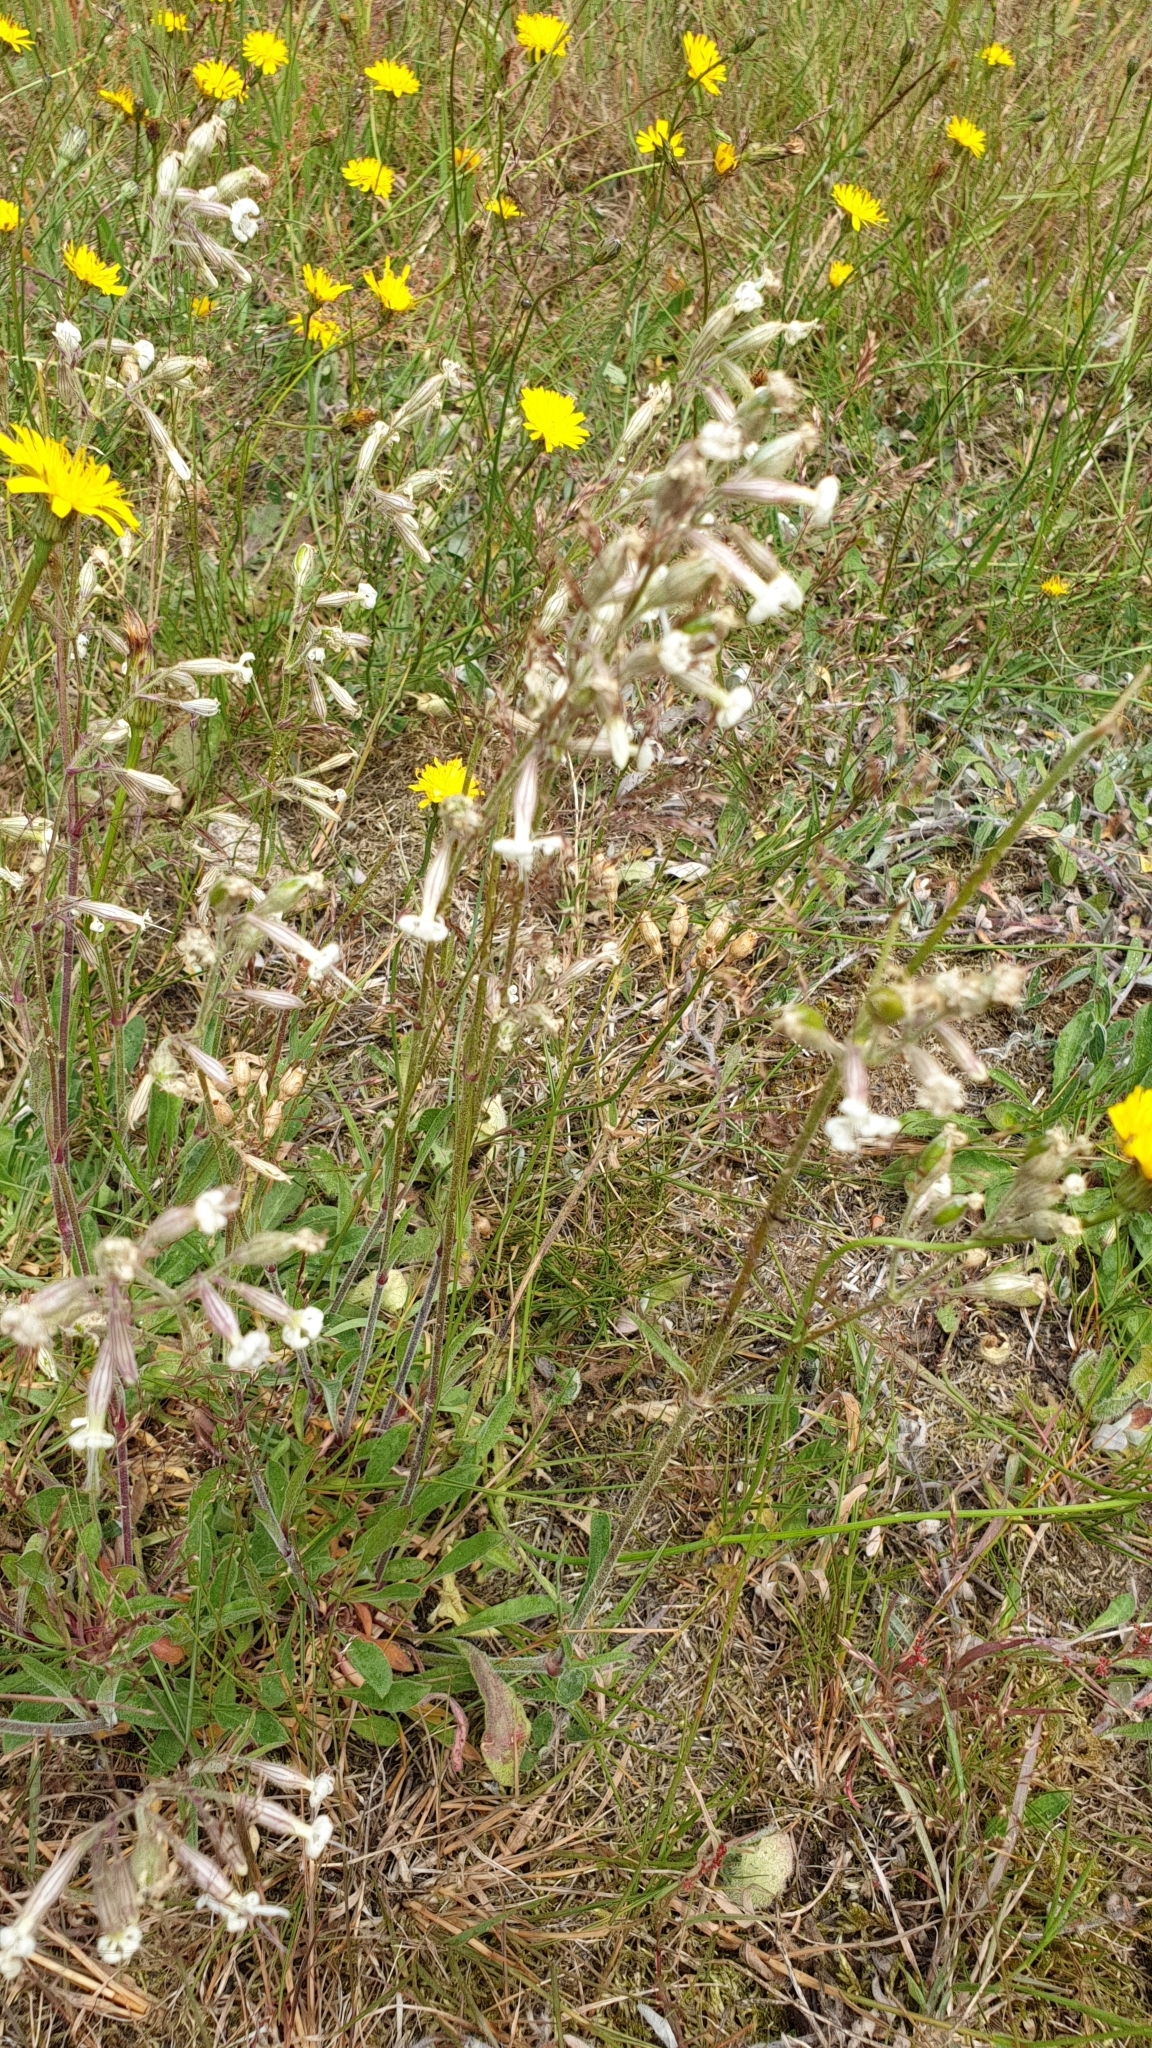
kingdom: Plantae
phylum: Tracheophyta
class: Magnoliopsida
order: Caryophyllales
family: Caryophyllaceae
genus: Silene
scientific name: Silene nutans
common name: Nottingham catchfly
